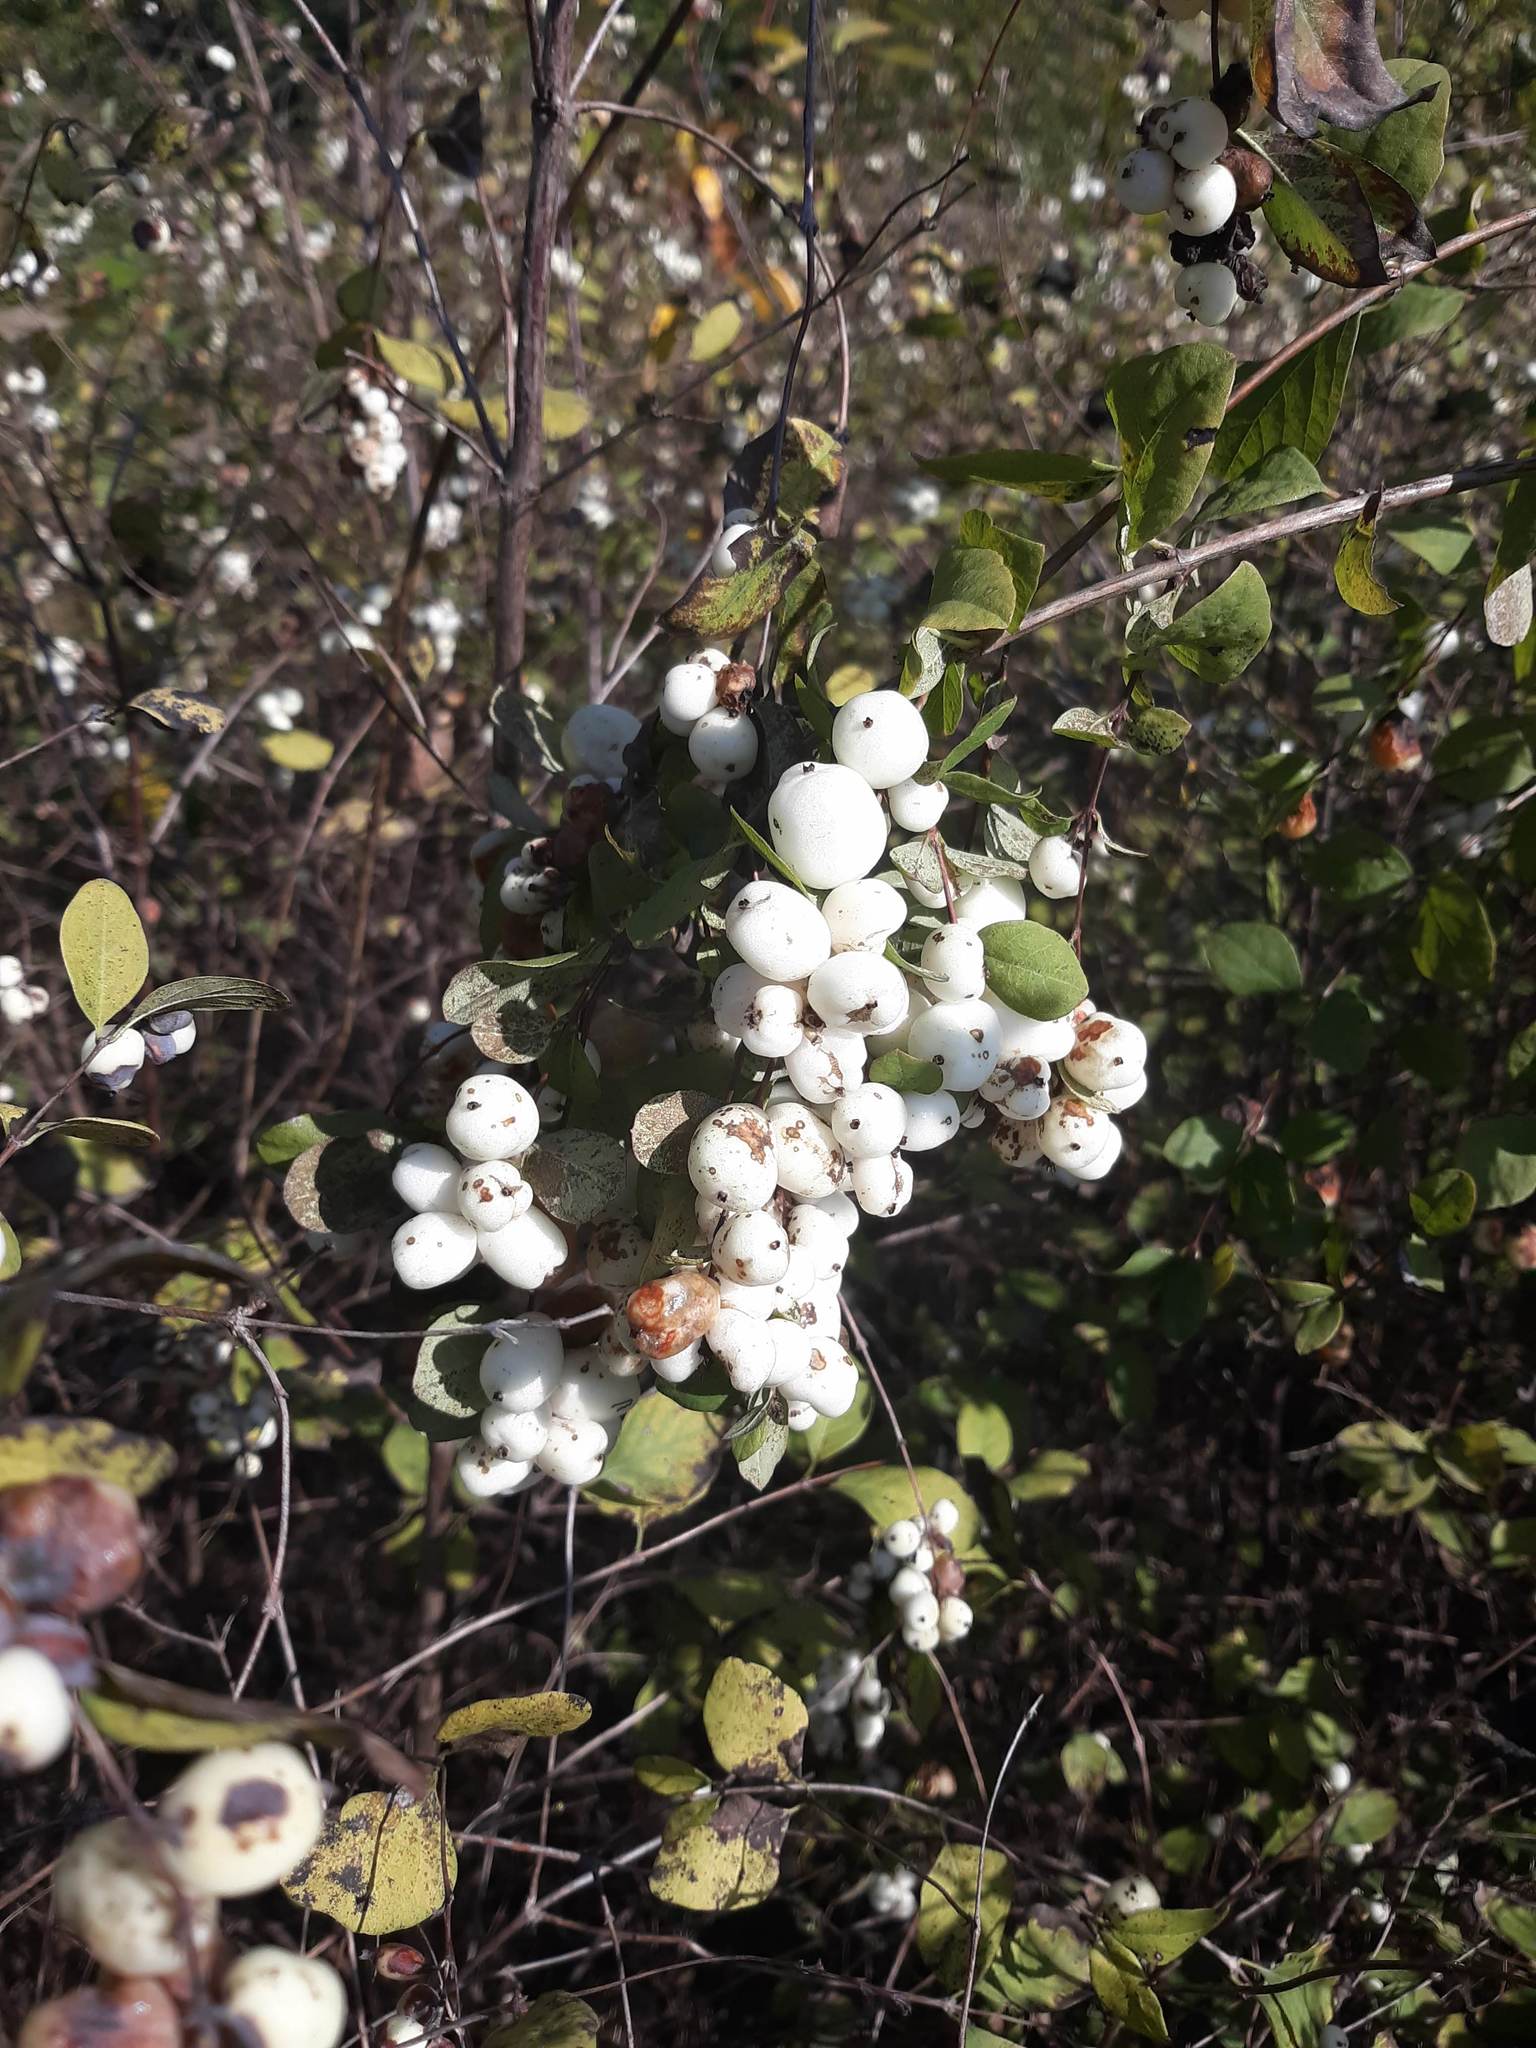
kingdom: Plantae
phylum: Tracheophyta
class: Magnoliopsida
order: Dipsacales
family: Caprifoliaceae
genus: Symphoricarpos
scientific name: Symphoricarpos albus
